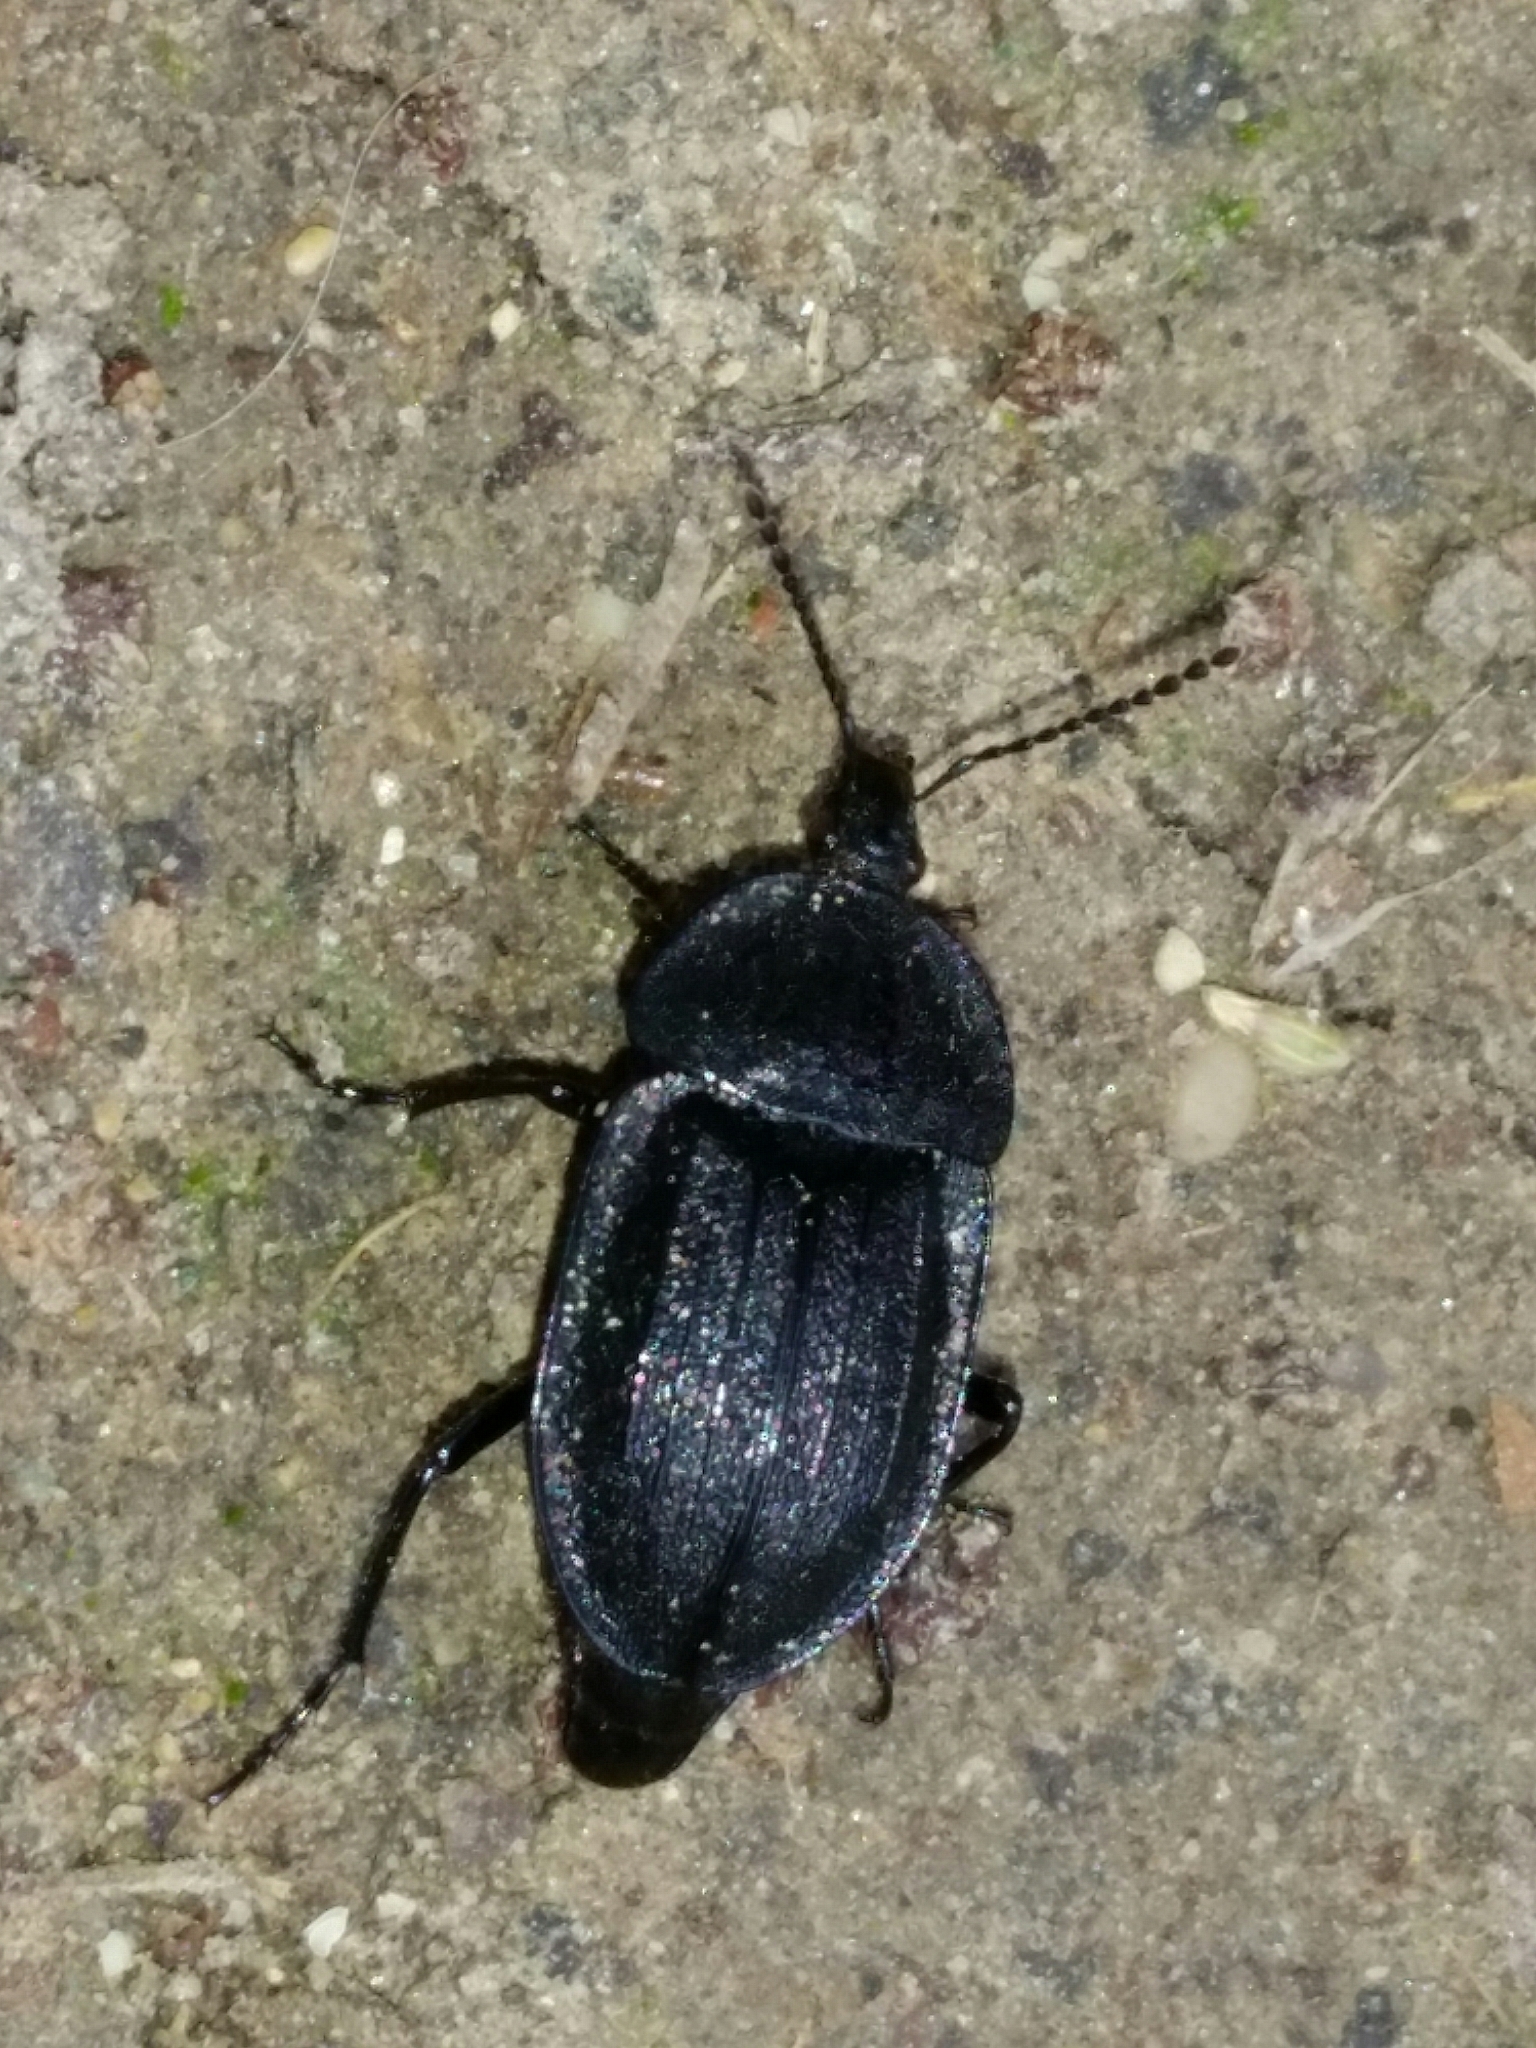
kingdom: Animalia
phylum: Arthropoda
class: Insecta
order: Coleoptera
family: Staphylinidae
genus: Silpha
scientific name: Silpha atrata
